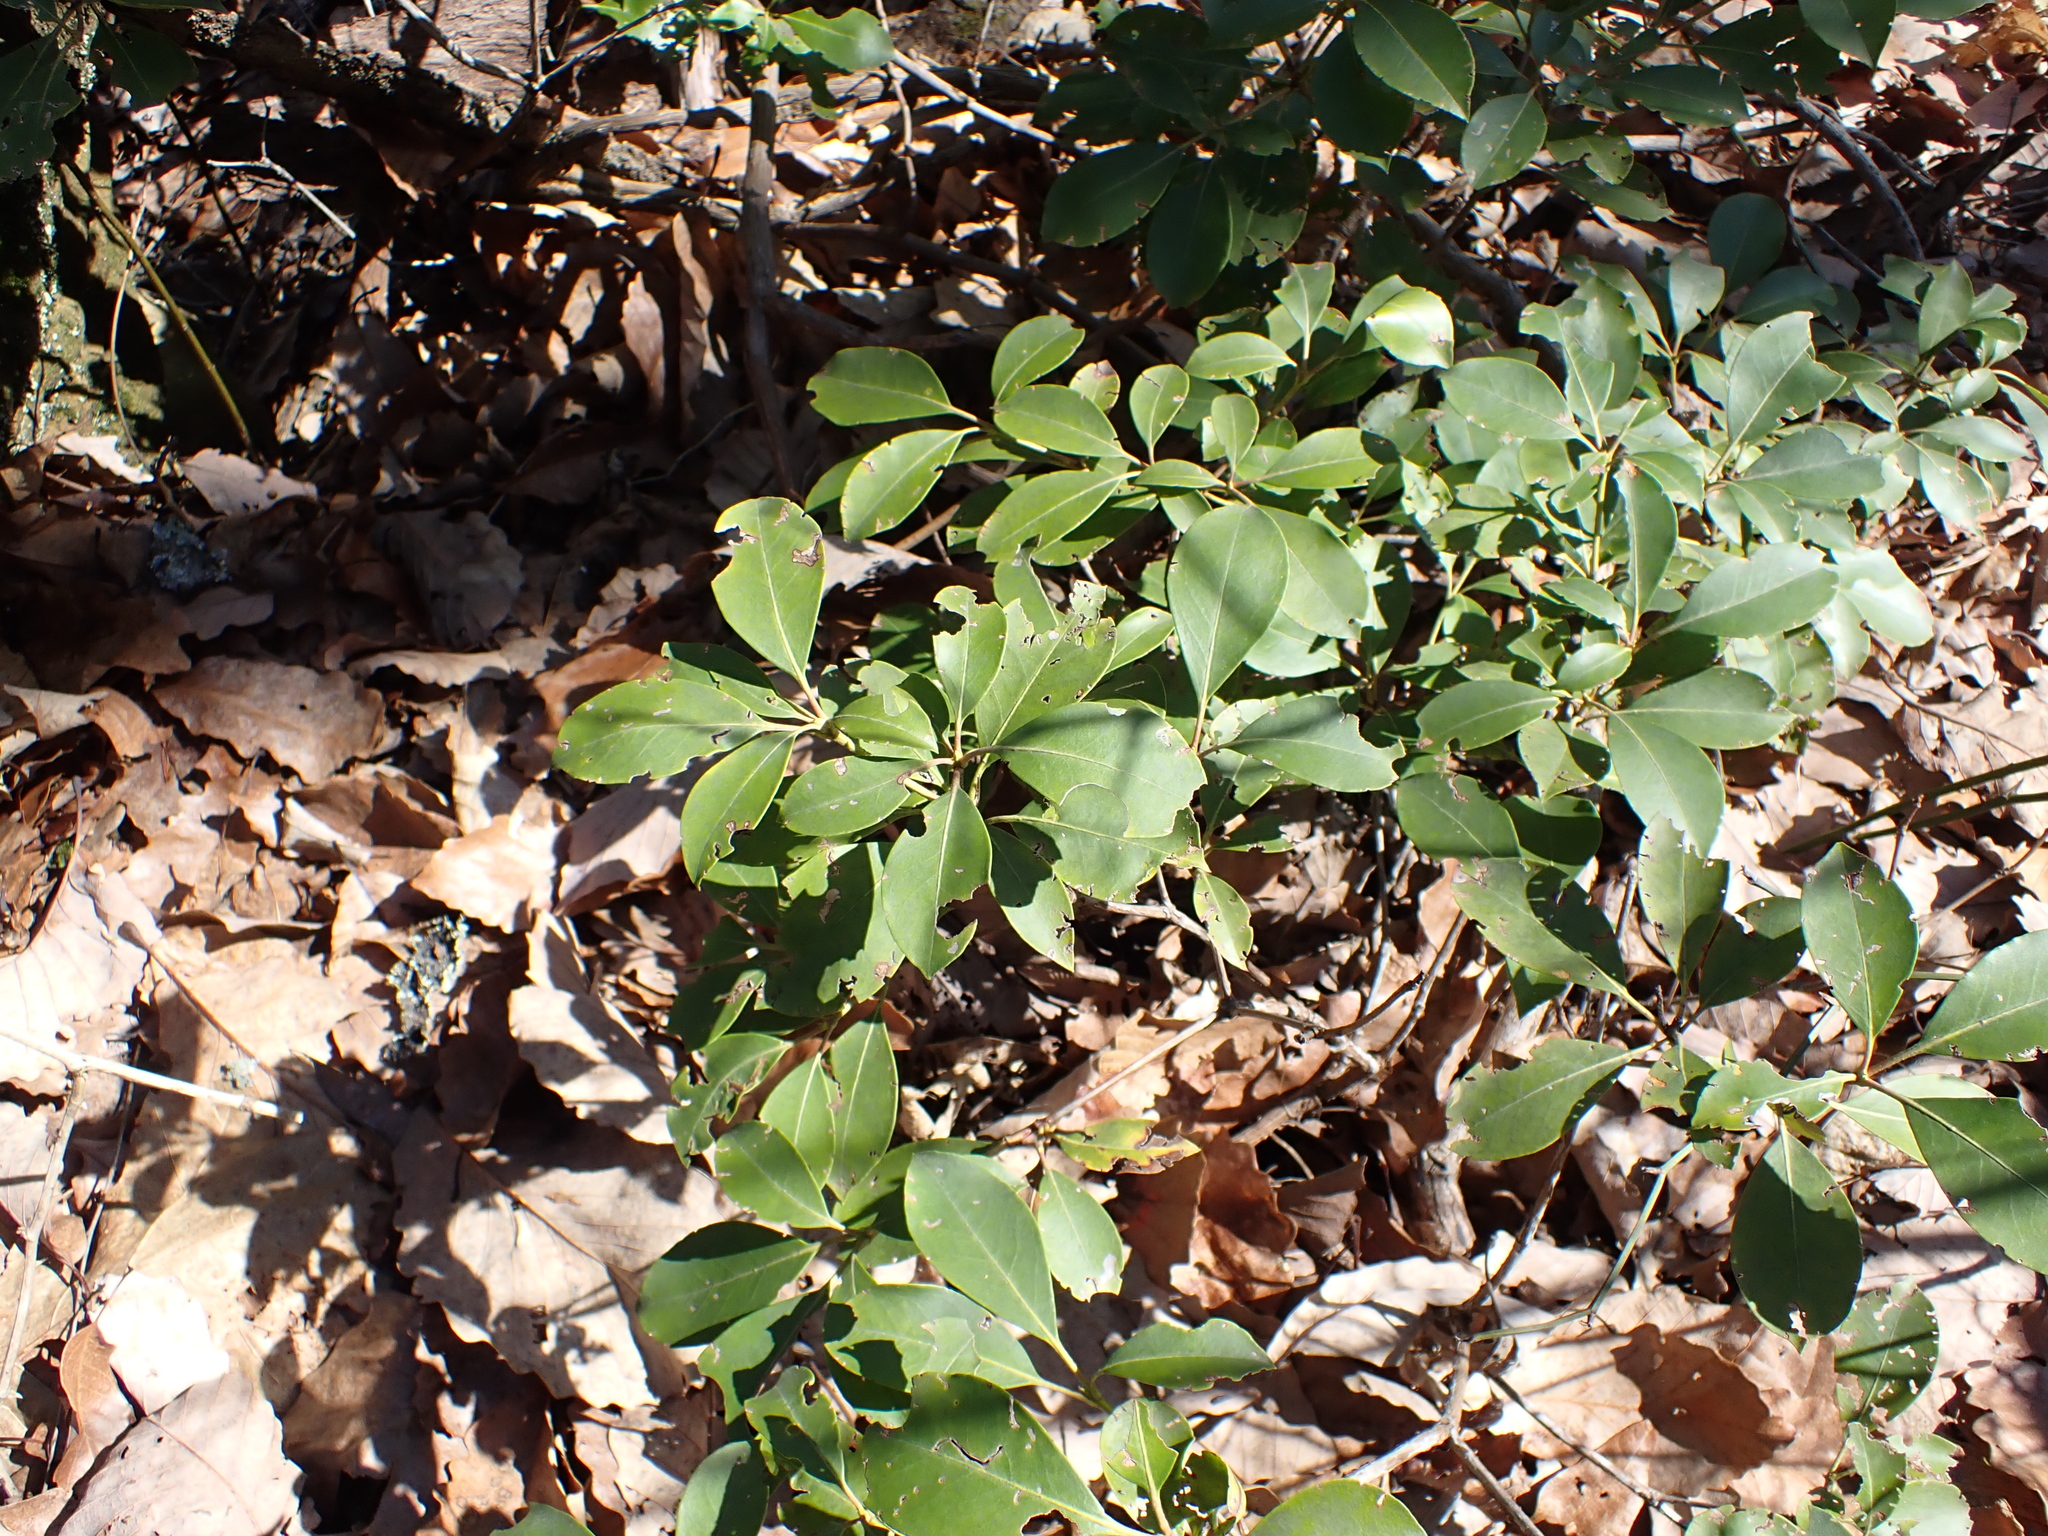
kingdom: Plantae
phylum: Tracheophyta
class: Magnoliopsida
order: Ericales
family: Ericaceae
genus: Kalmia
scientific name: Kalmia latifolia
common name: Mountain-laurel
